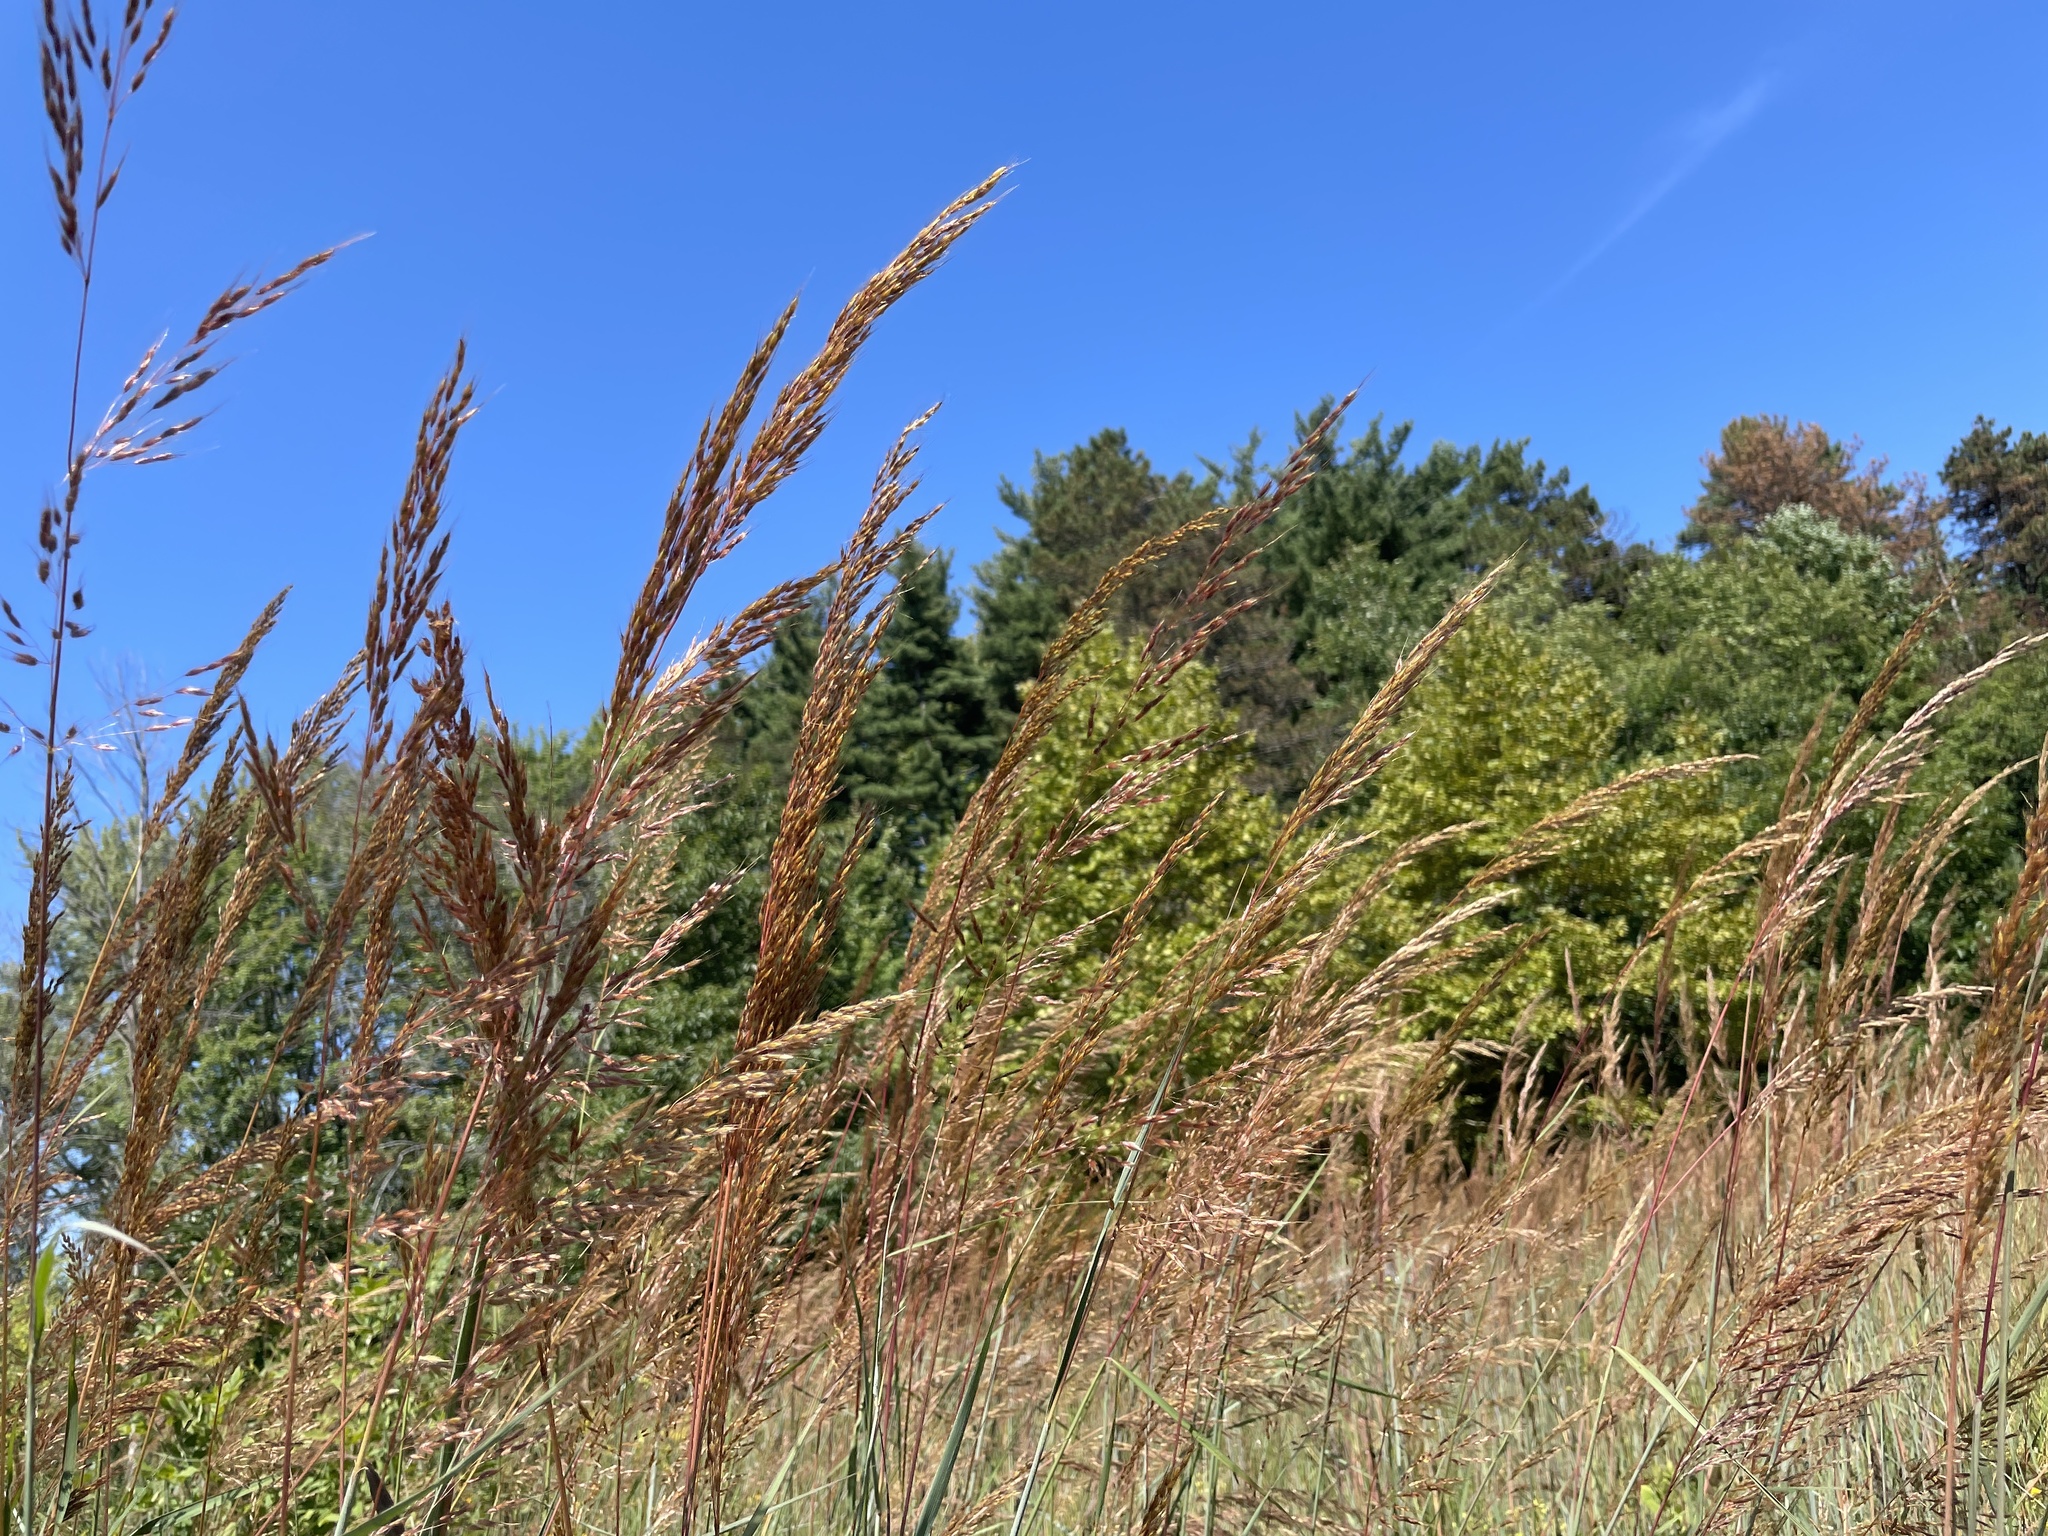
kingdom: Plantae
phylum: Tracheophyta
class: Liliopsida
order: Poales
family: Poaceae
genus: Sorghastrum
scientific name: Sorghastrum nutans
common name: Indian grass
